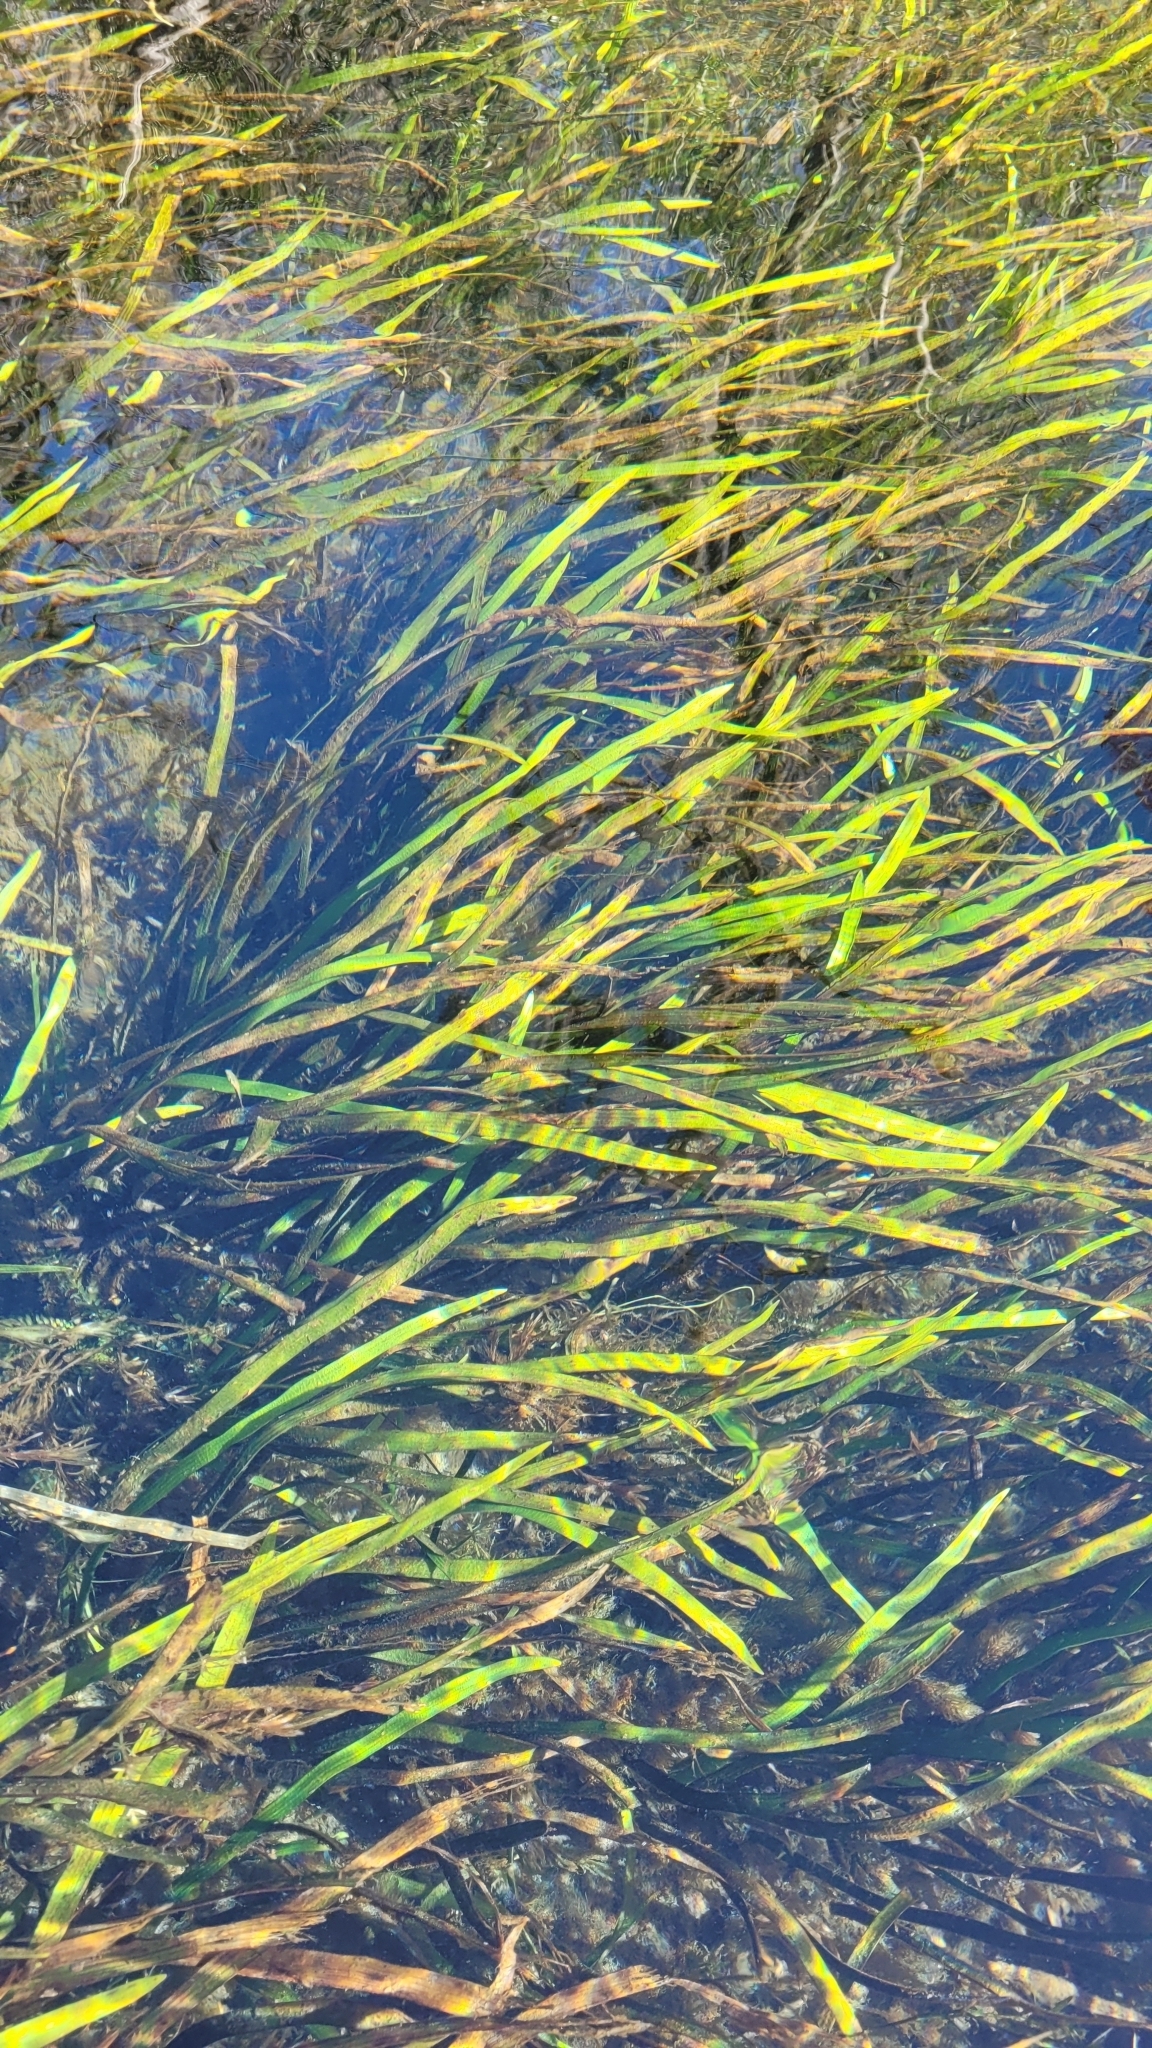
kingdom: Plantae
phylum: Tracheophyta
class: Liliopsida
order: Alismatales
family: Alismataceae
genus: Sagittaria
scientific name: Sagittaria kurziana
